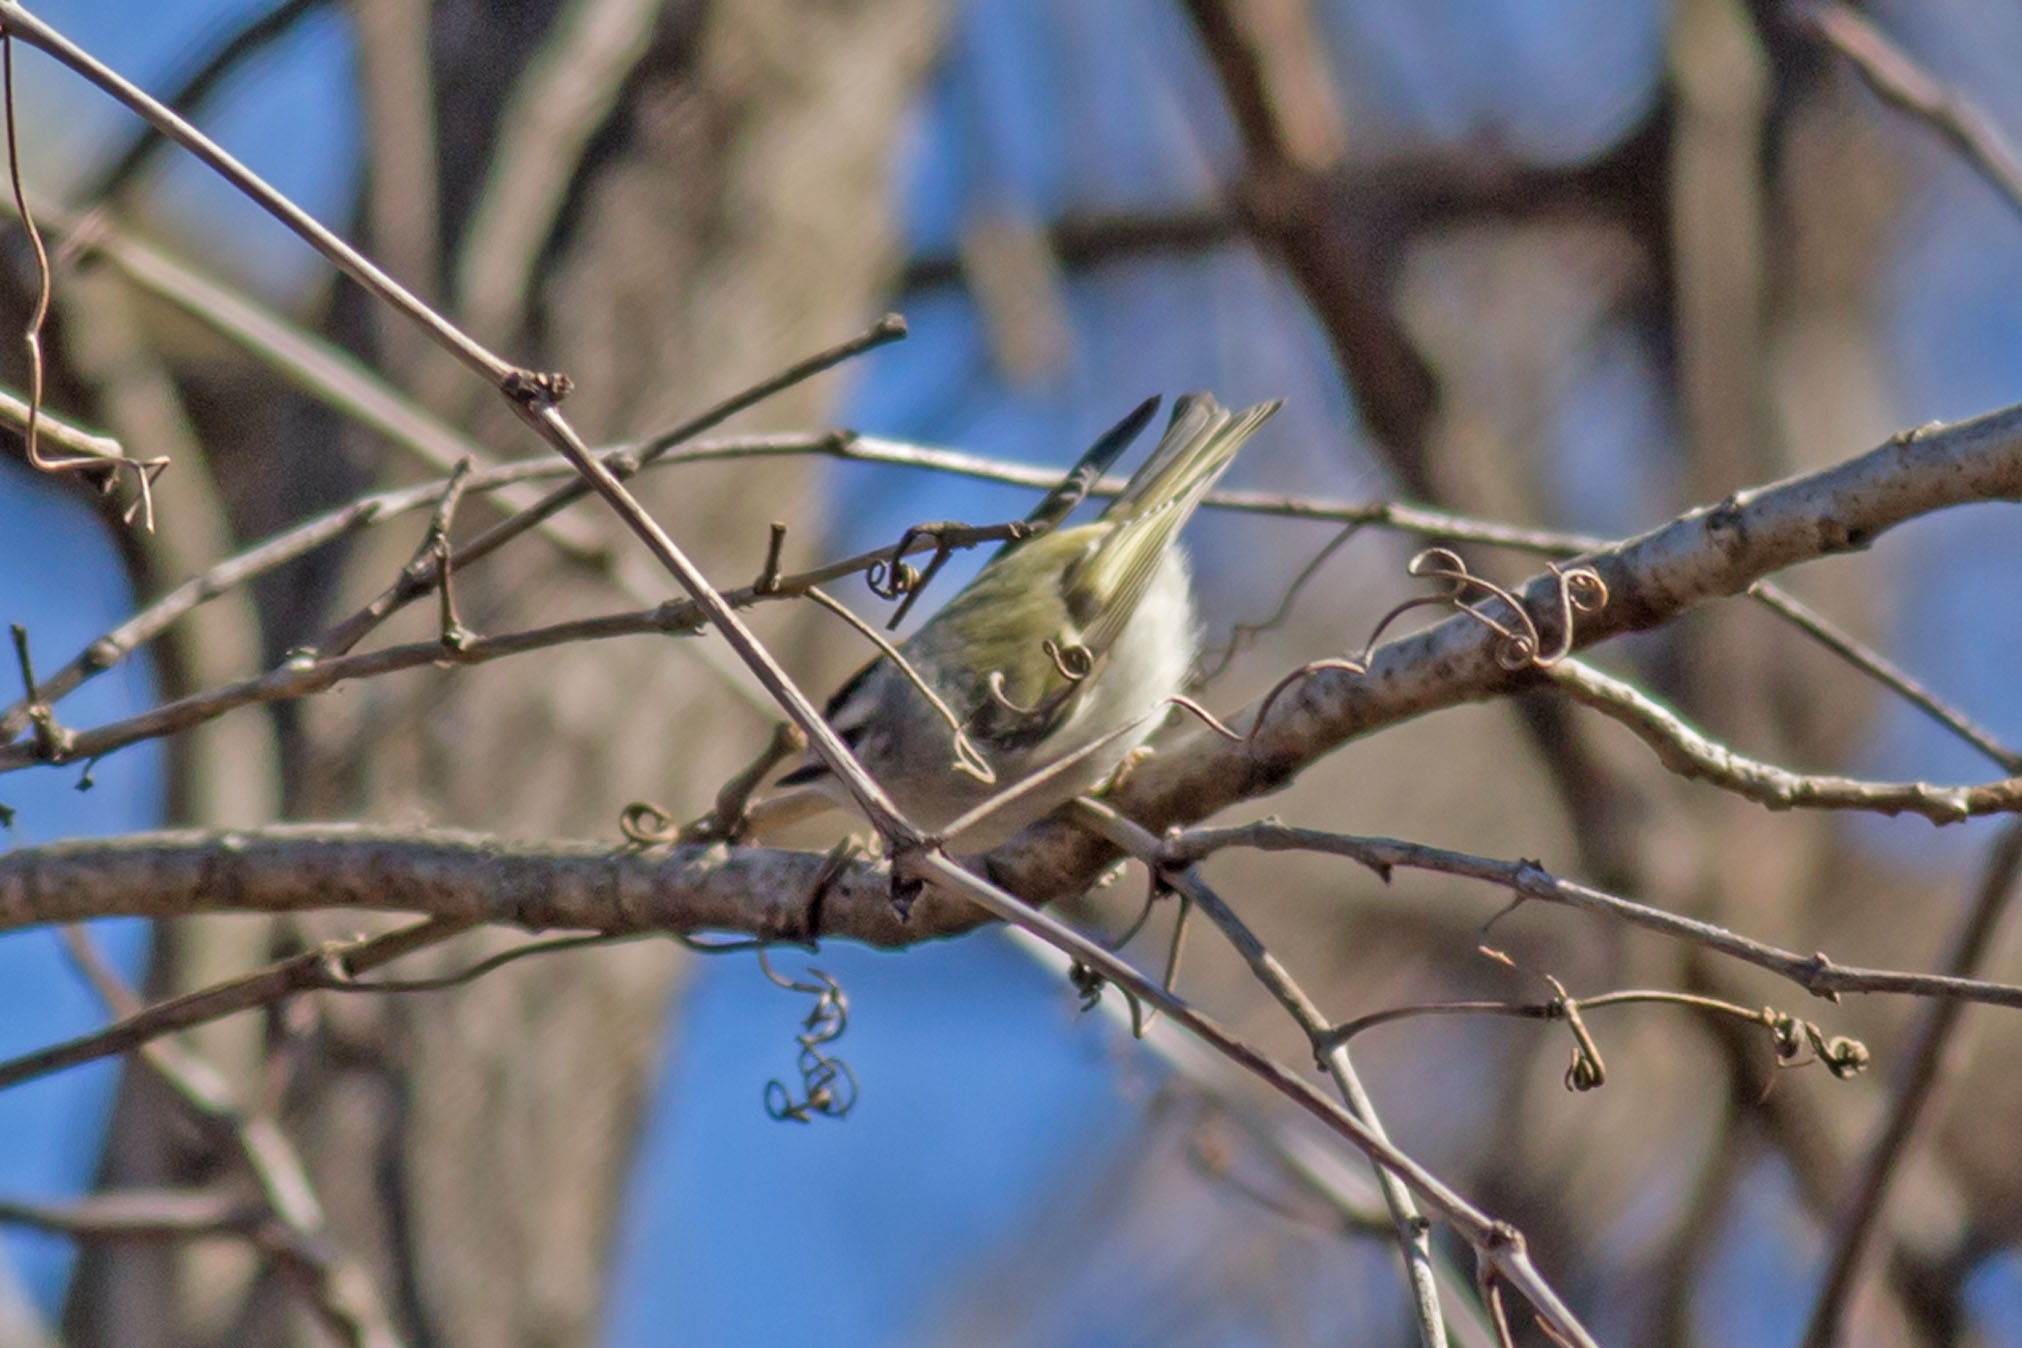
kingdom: Animalia
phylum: Chordata
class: Aves
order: Passeriformes
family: Regulidae
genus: Regulus
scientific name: Regulus satrapa
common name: Golden-crowned kinglet
